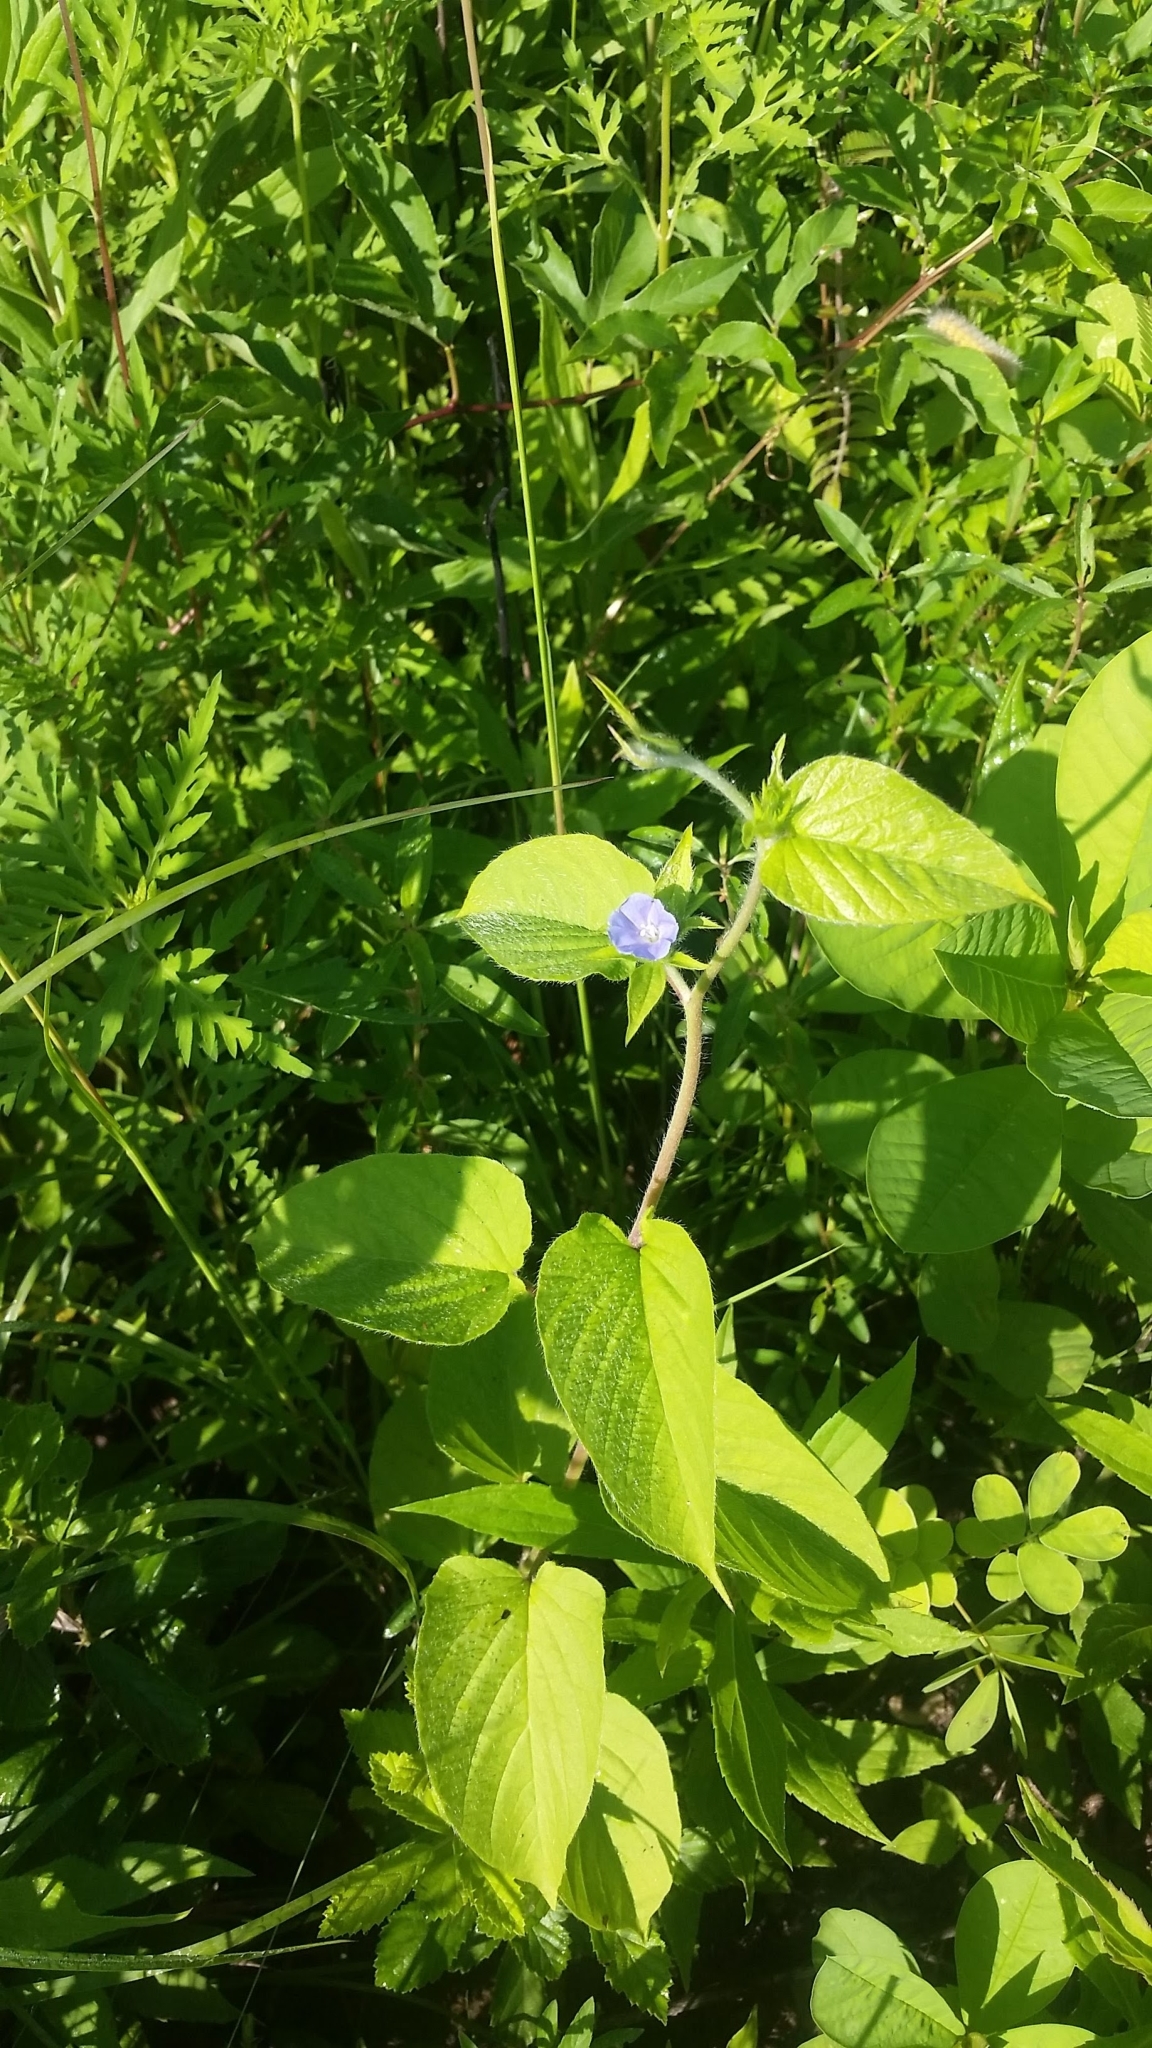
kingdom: Plantae
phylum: Tracheophyta
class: Magnoliopsida
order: Solanales
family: Convolvulaceae
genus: Jacquemontia
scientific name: Jacquemontia tamnifolia
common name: Hairy clustervine
